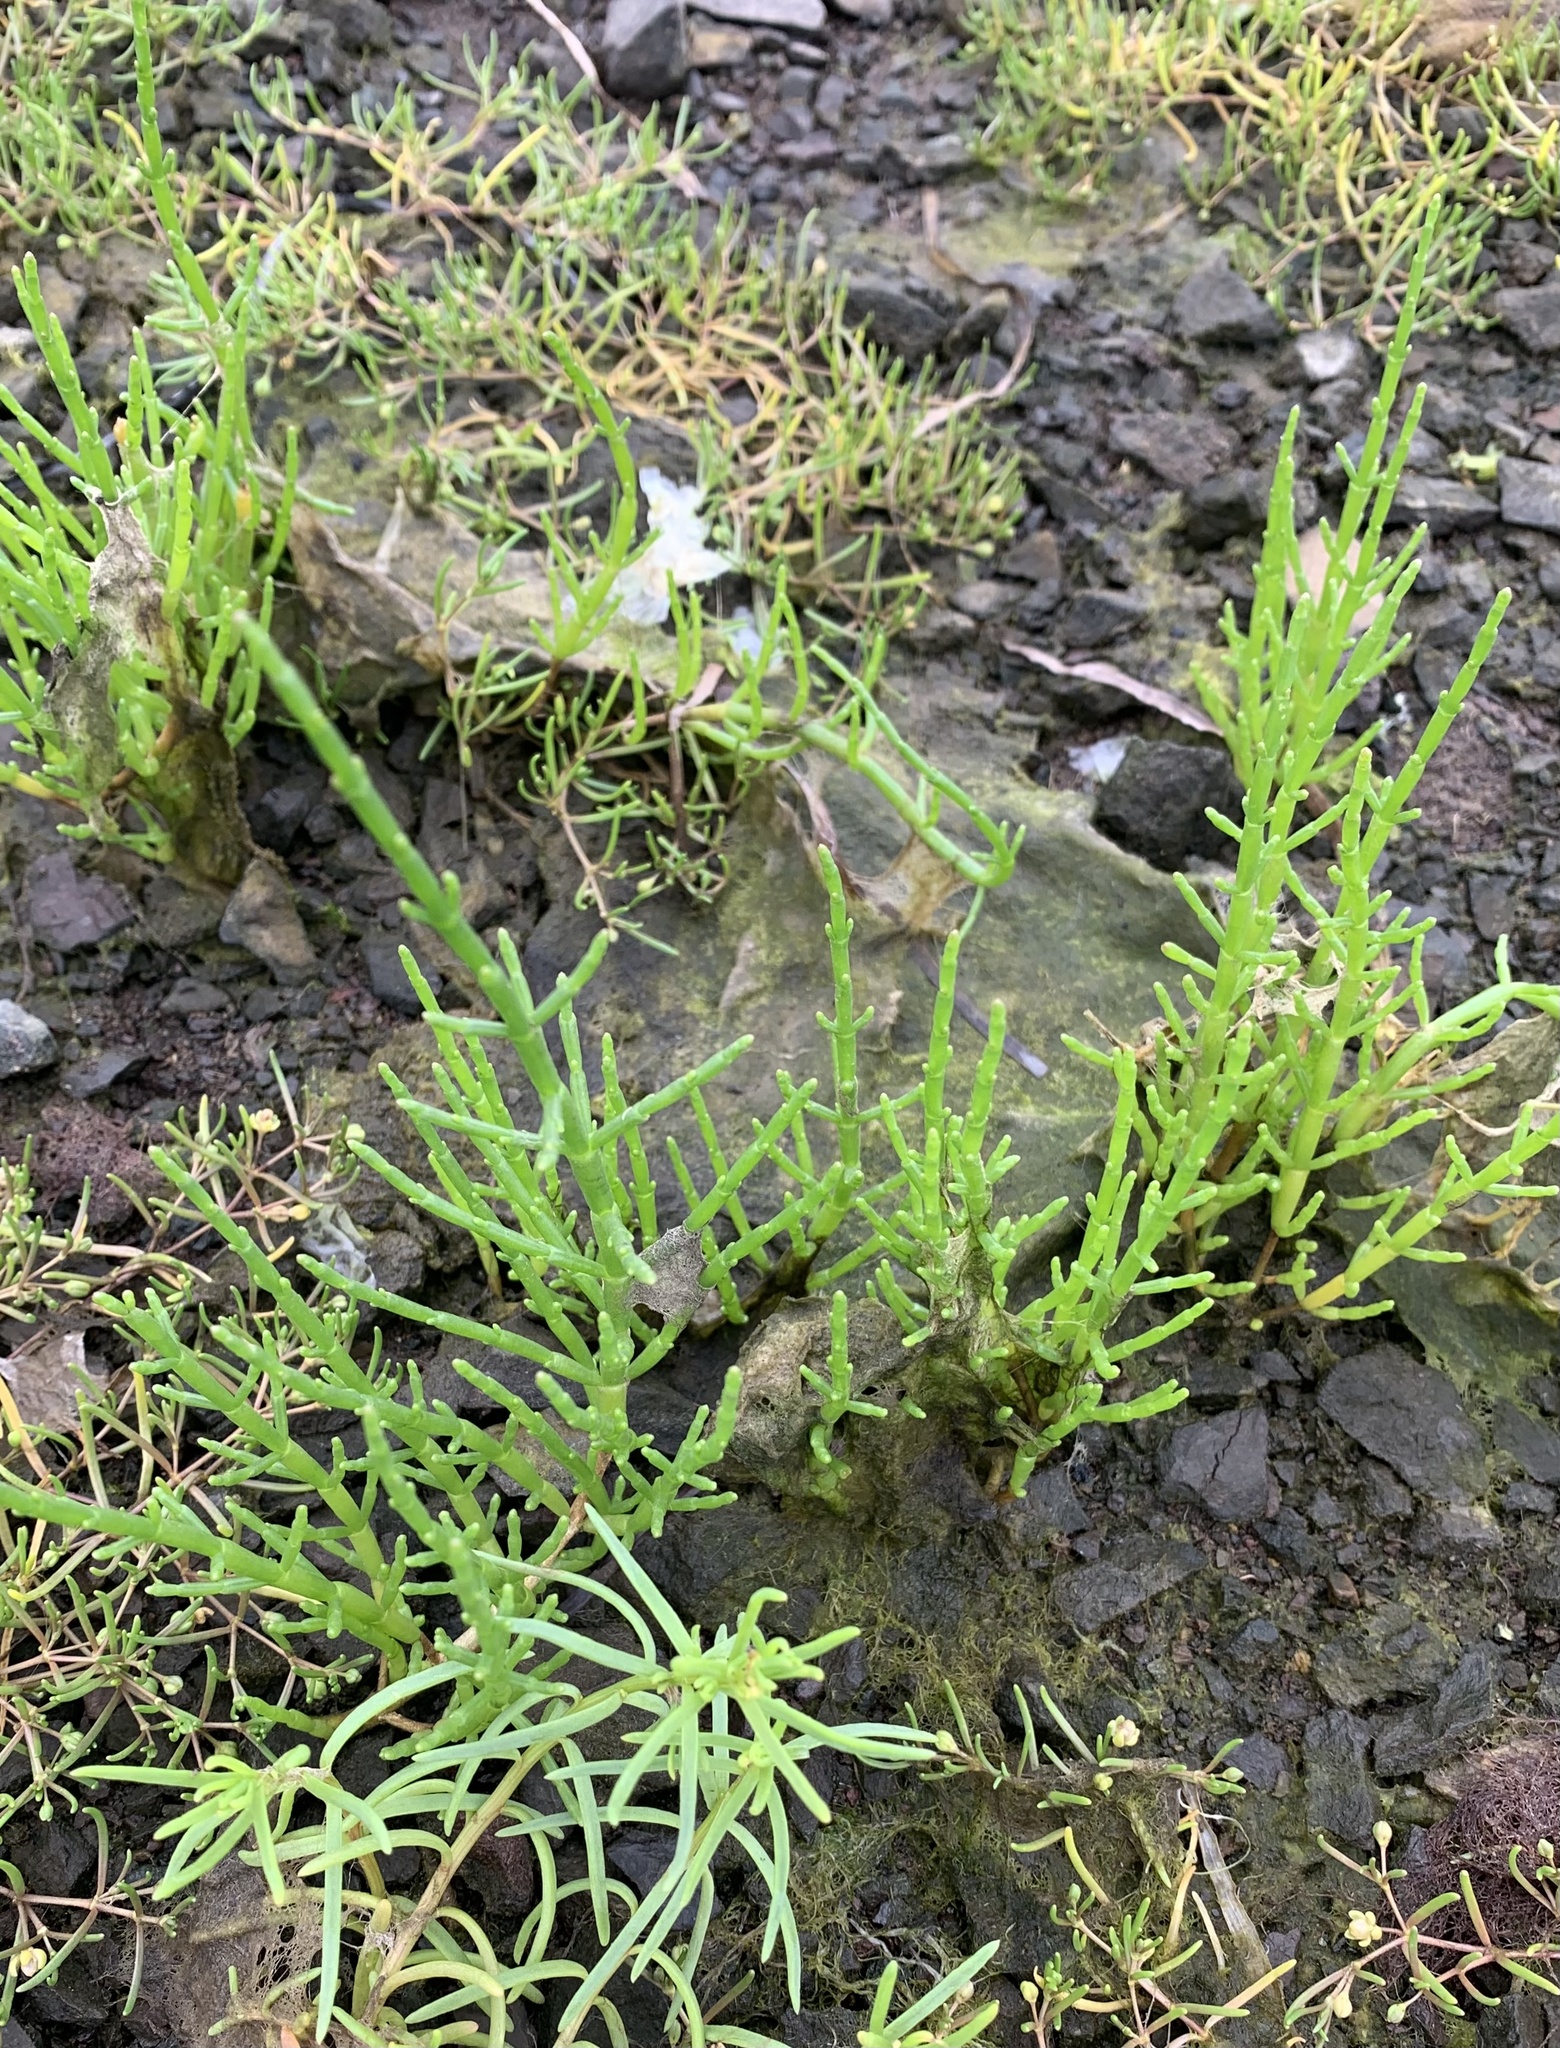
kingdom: Plantae
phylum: Tracheophyta
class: Magnoliopsida
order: Caryophyllales
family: Amaranthaceae
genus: Salicornia
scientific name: Salicornia europaea
